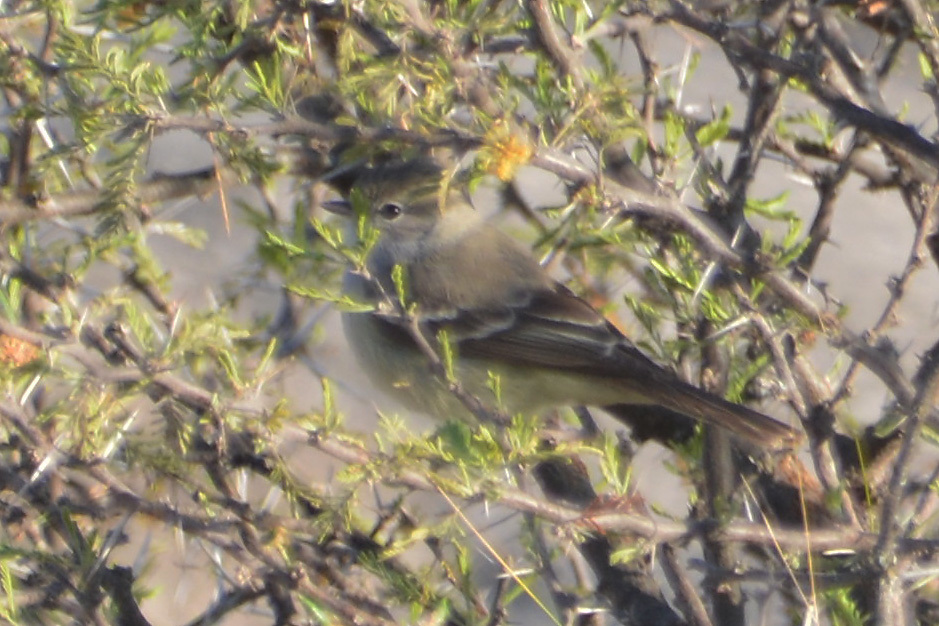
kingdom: Animalia
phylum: Chordata
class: Aves
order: Passeriformes
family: Tyrannidae
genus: Sublegatus
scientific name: Sublegatus modestus
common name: Southern scrub flycatcher
